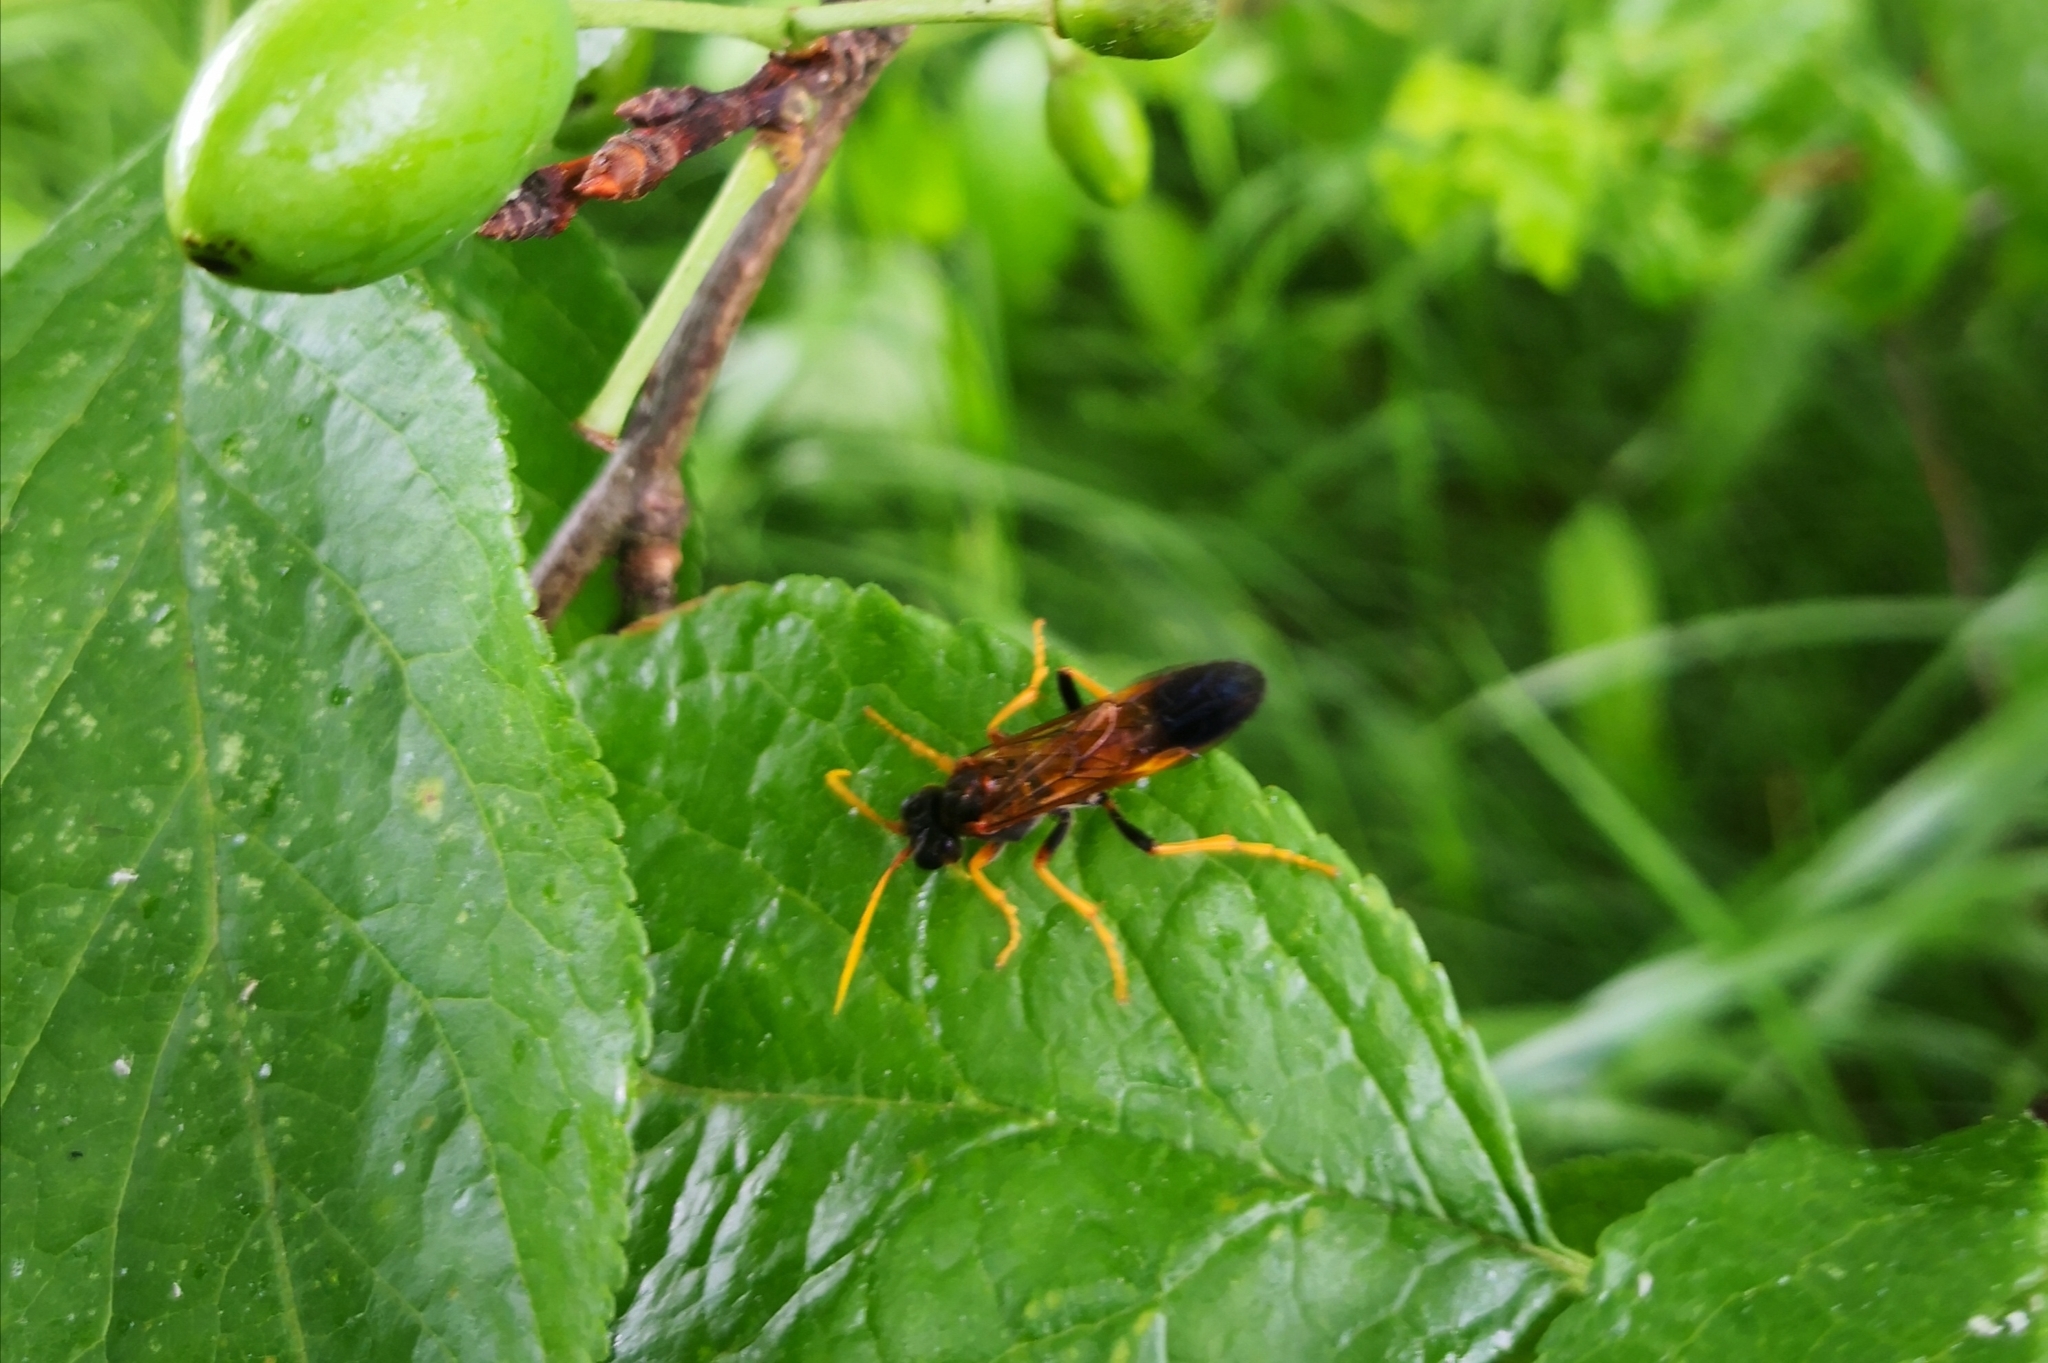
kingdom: Animalia
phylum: Arthropoda
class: Insecta
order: Hymenoptera
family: Tenthredinidae
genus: Tenthredo
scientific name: Tenthredo campestris
